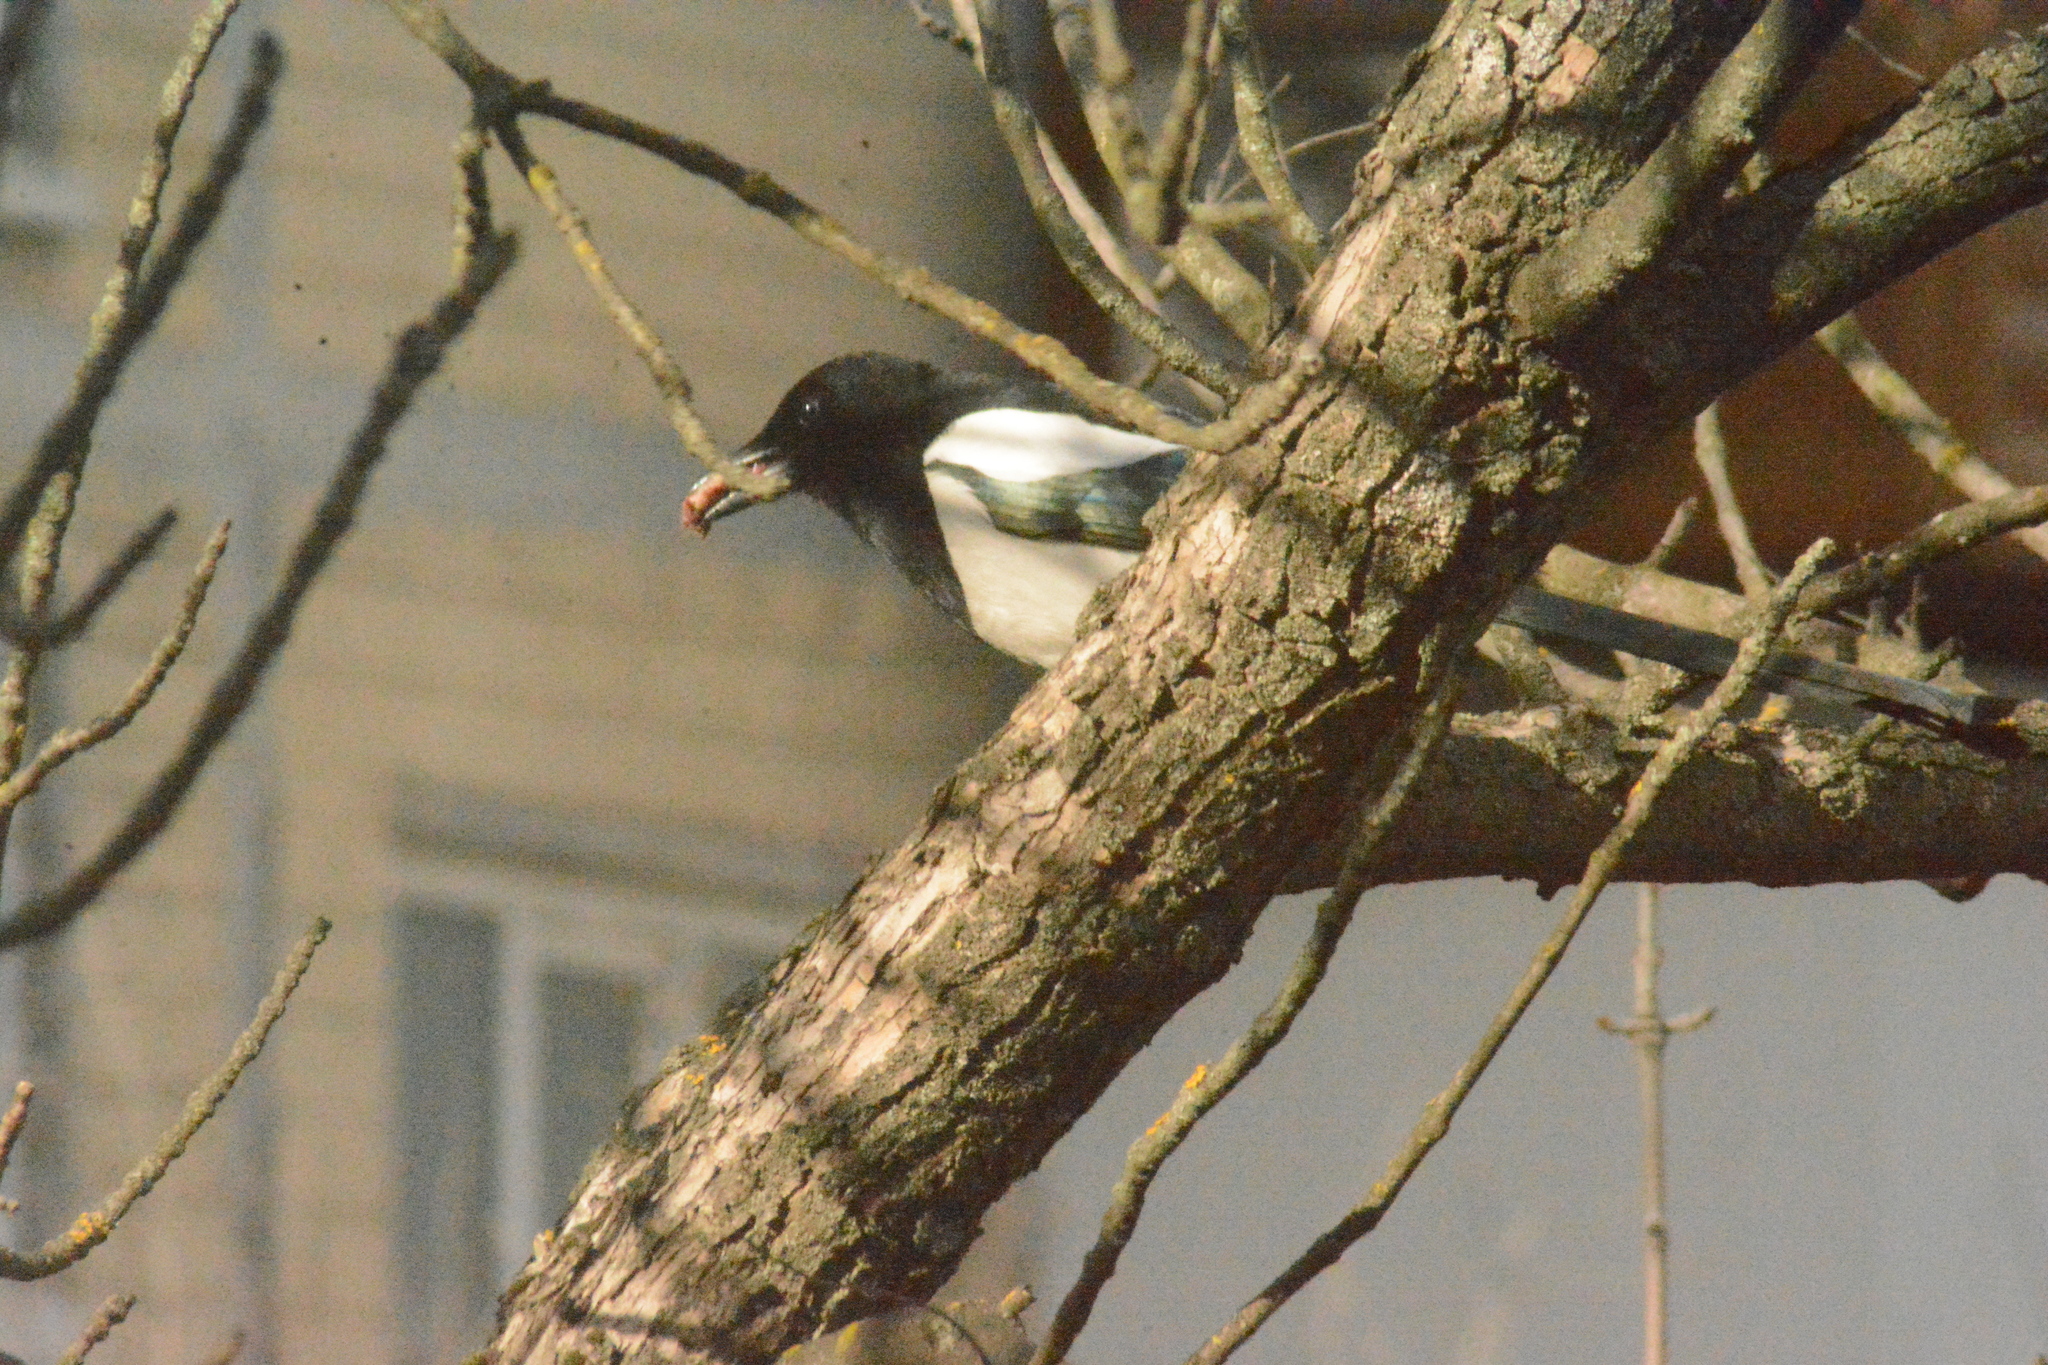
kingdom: Animalia
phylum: Chordata
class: Aves
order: Passeriformes
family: Corvidae
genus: Pica
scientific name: Pica pica
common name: Eurasian magpie
